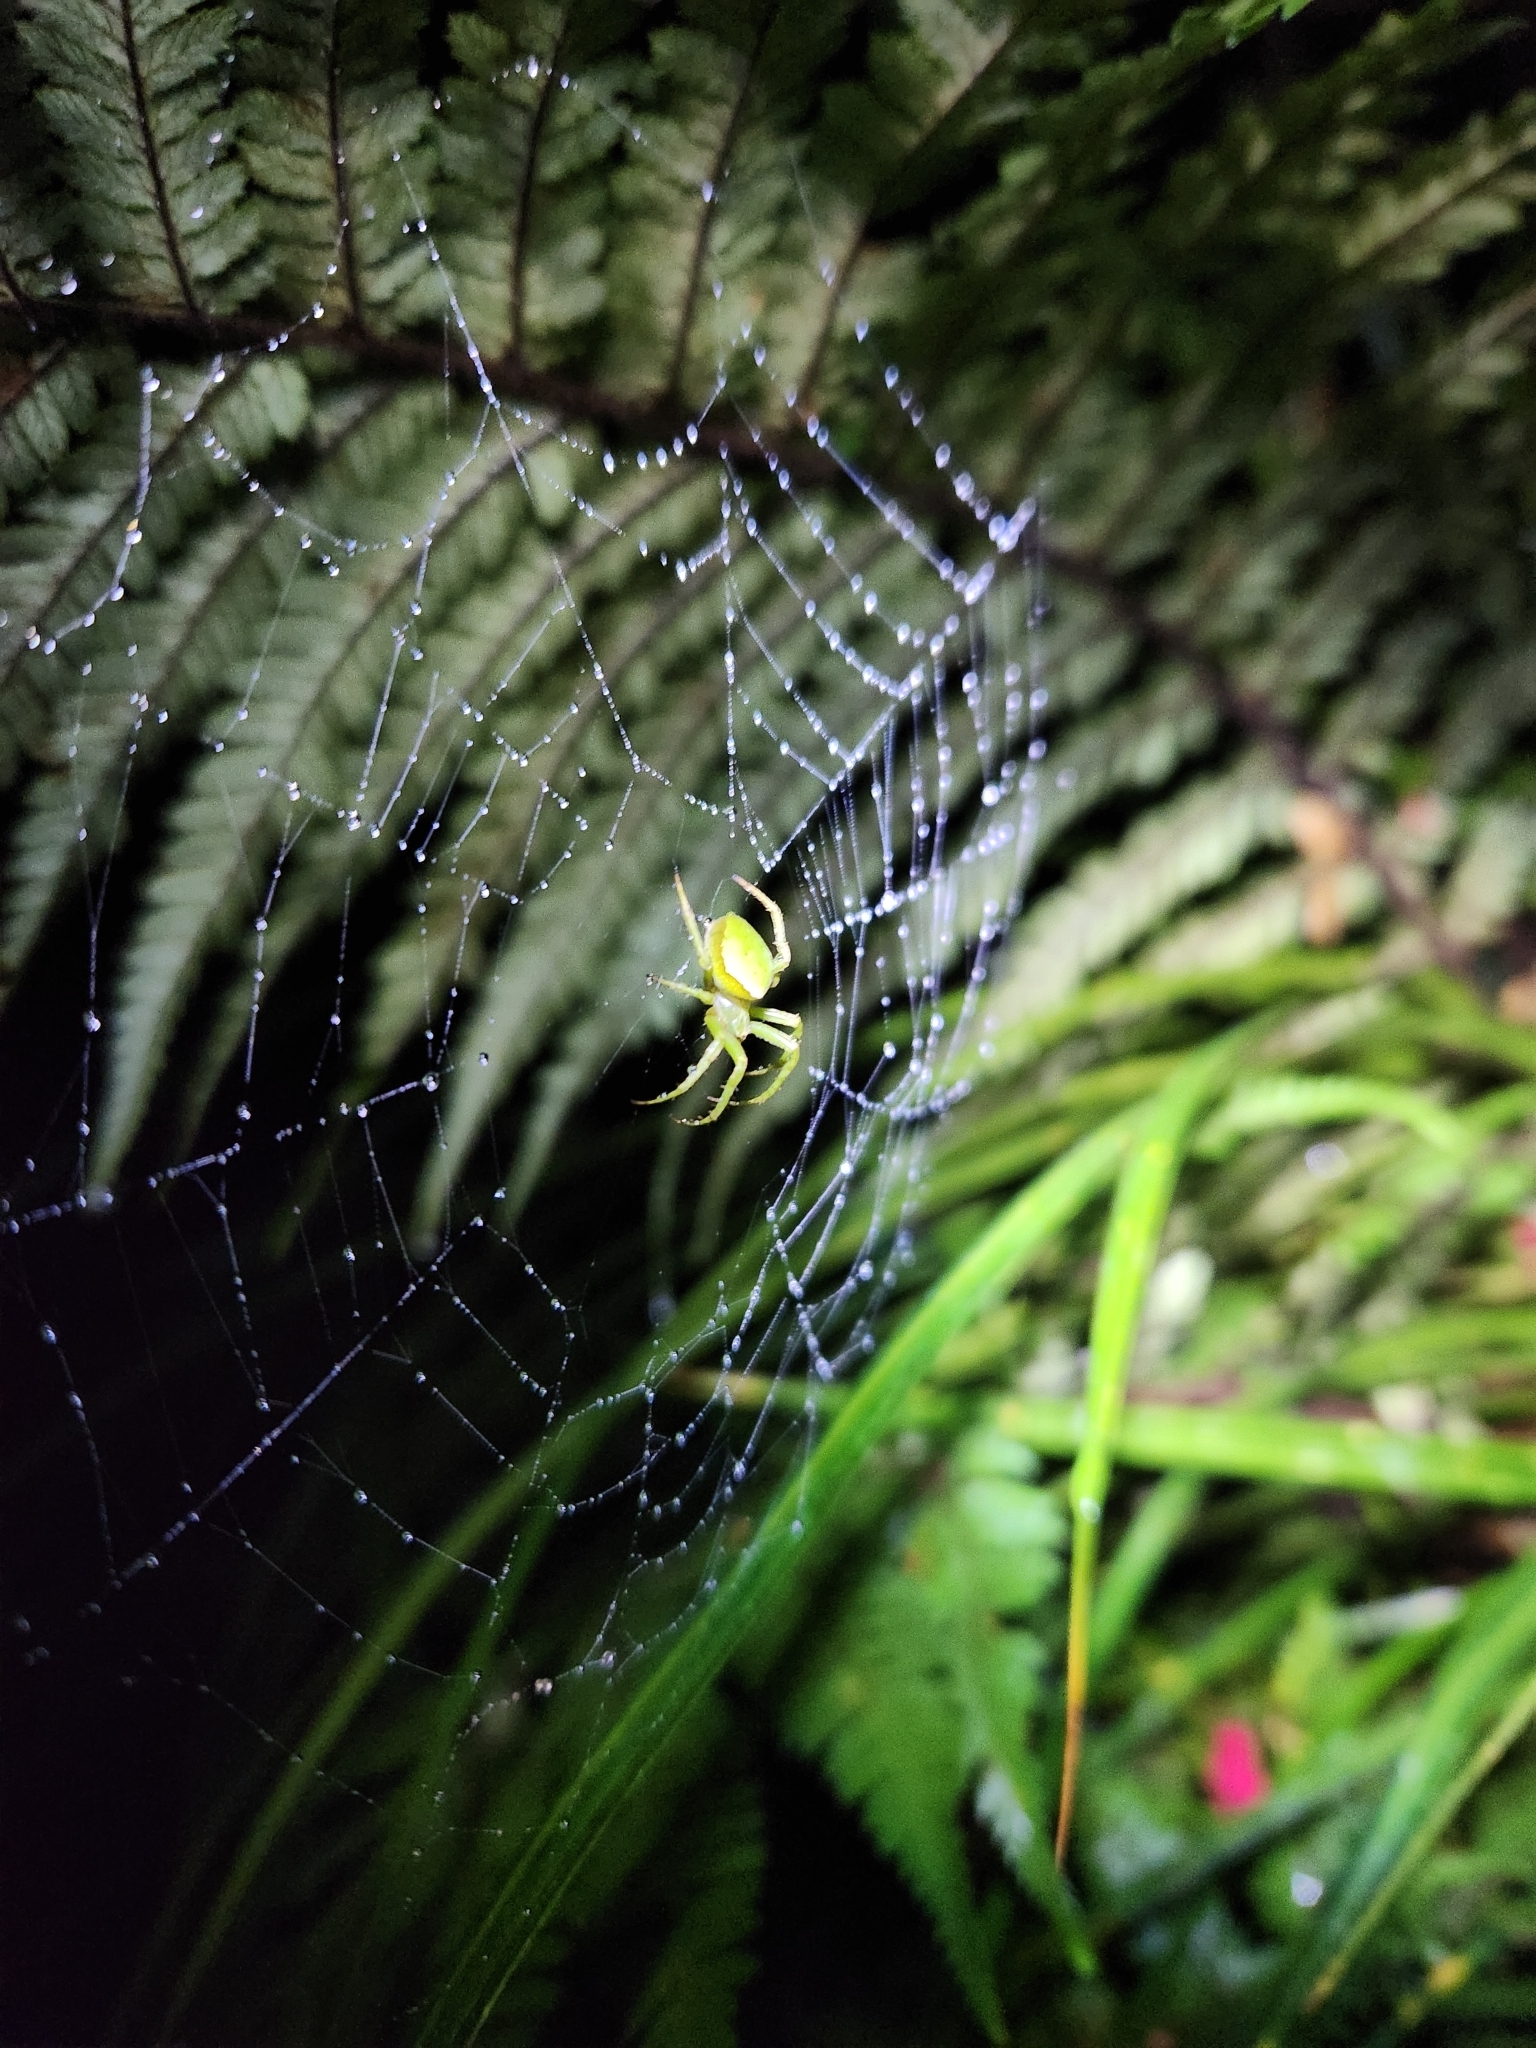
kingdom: Animalia
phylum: Arthropoda
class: Arachnida
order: Araneae
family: Araneidae
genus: Colaranea
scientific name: Colaranea viriditas
